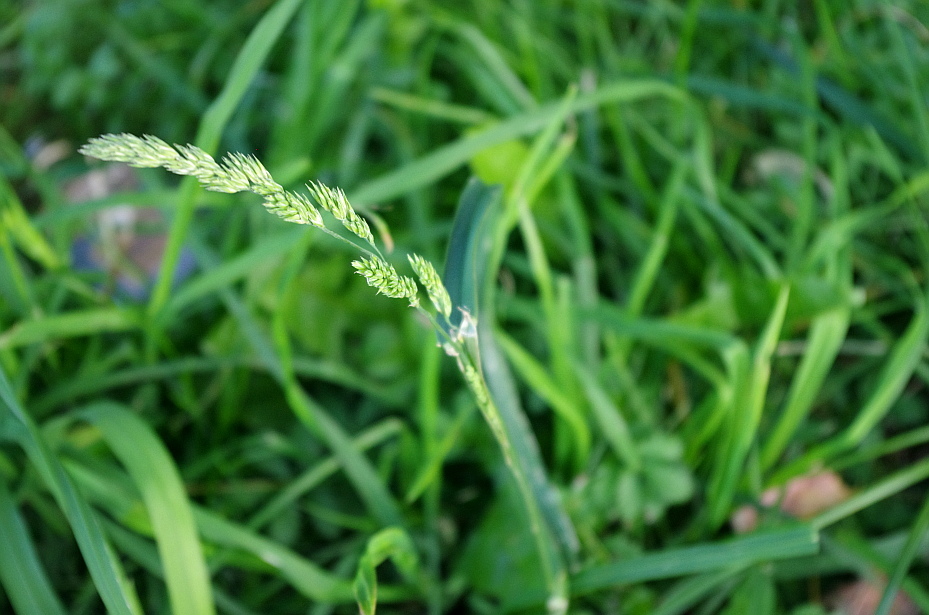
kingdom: Plantae
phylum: Tracheophyta
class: Liliopsida
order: Poales
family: Poaceae
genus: Dactylis
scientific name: Dactylis glomerata
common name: Orchardgrass
